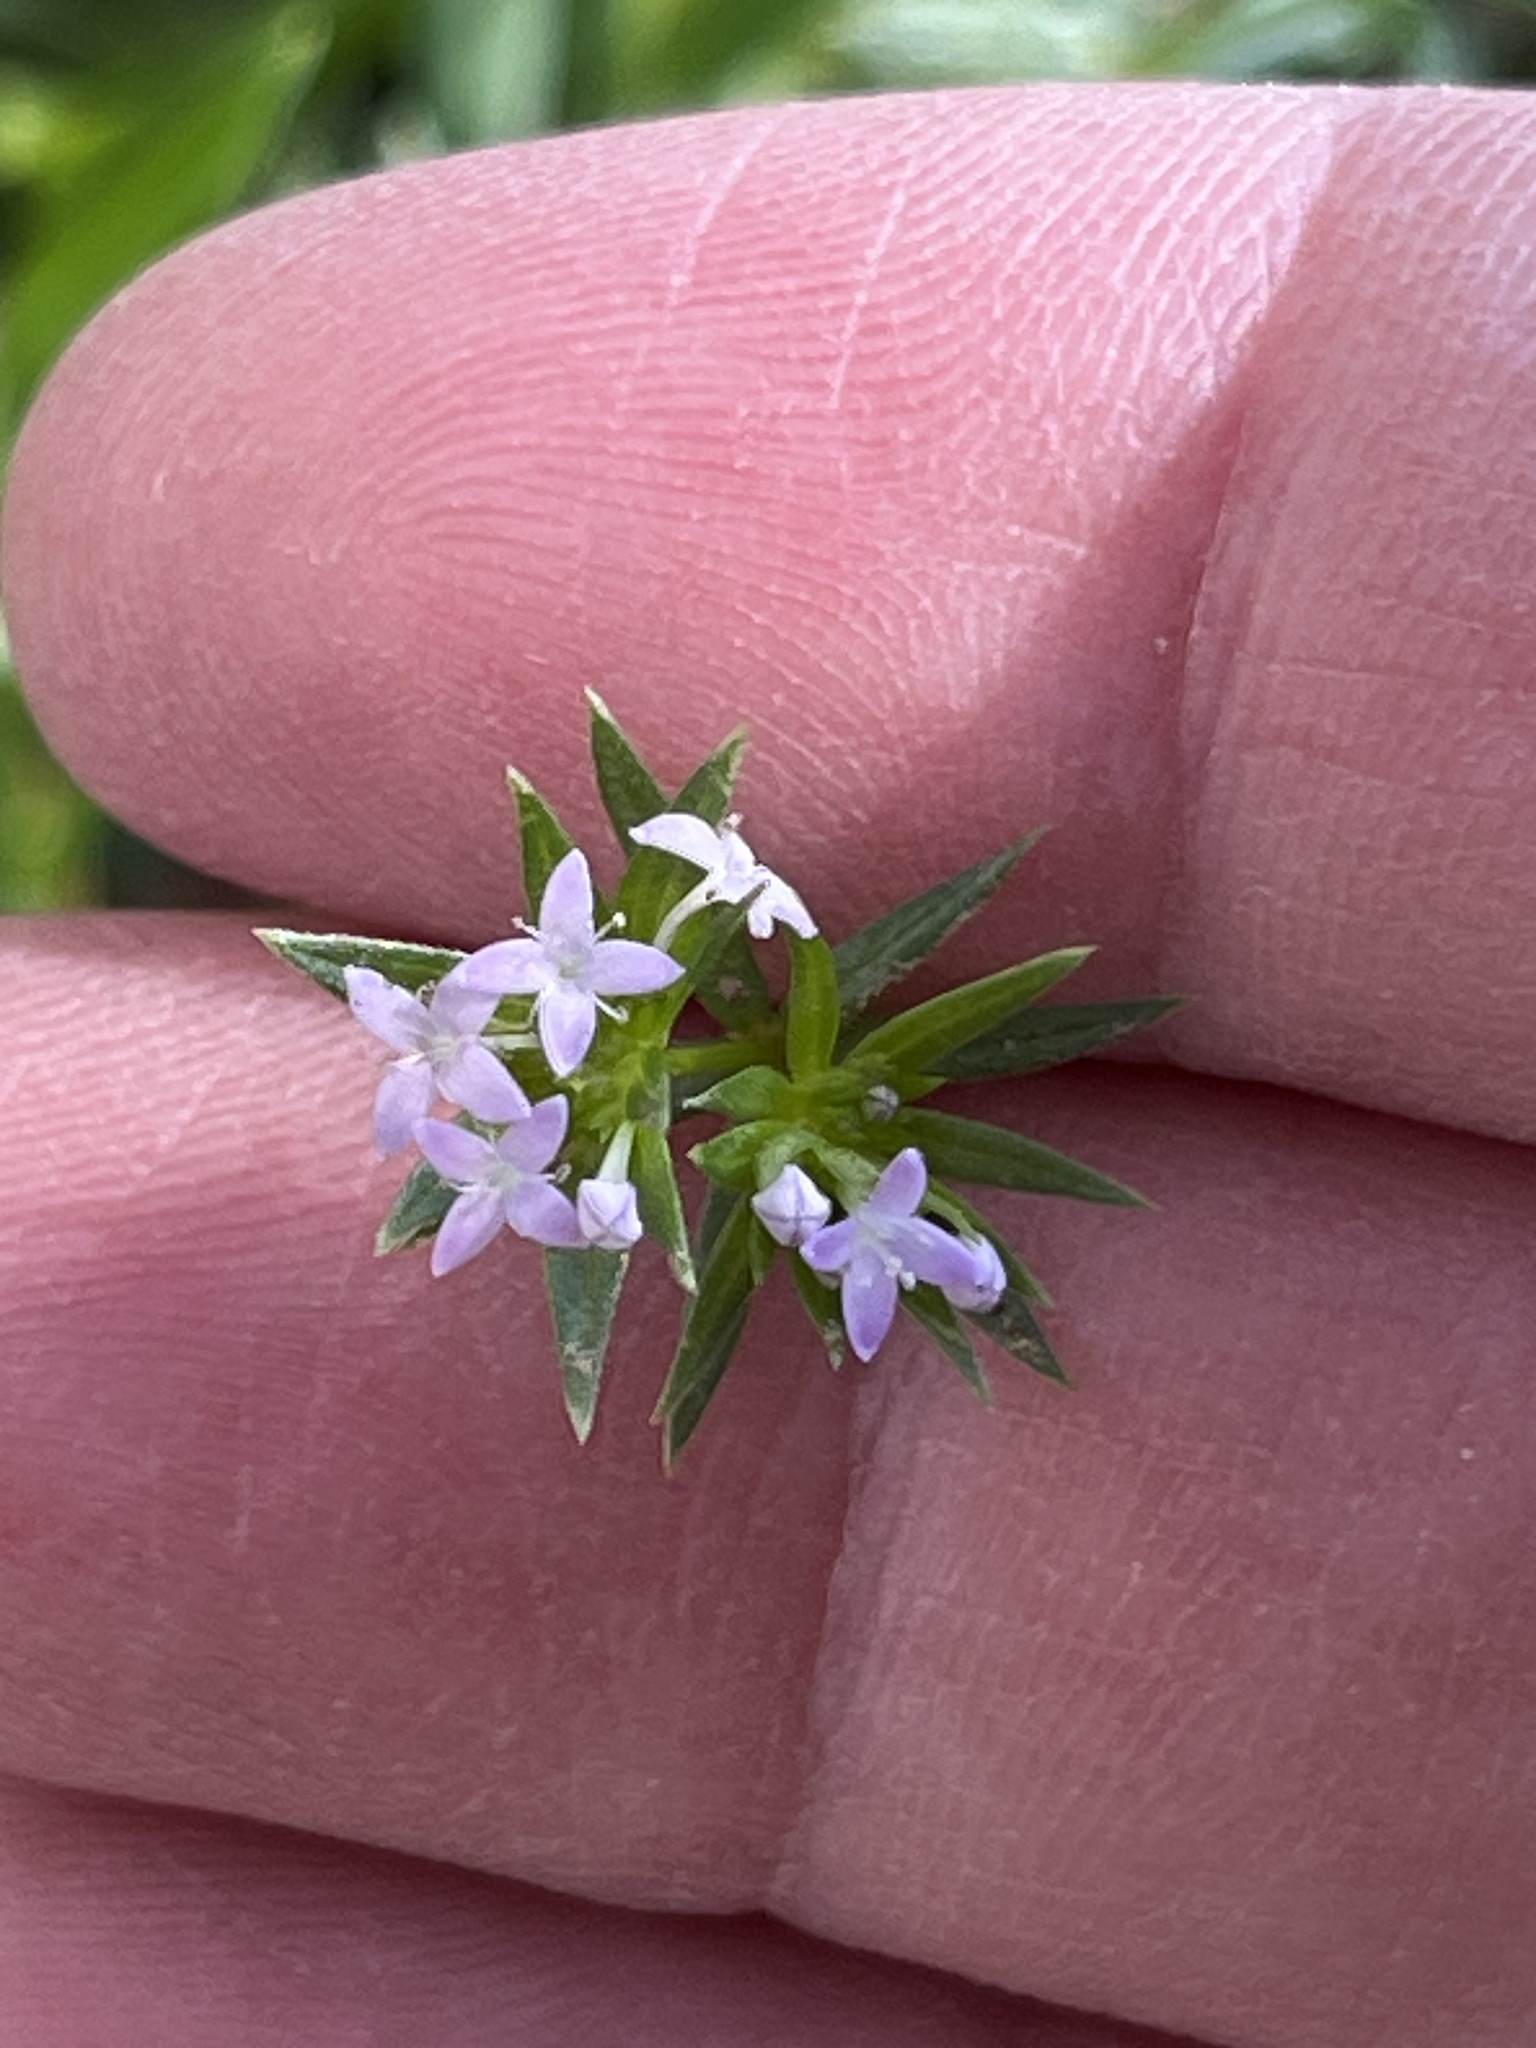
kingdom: Plantae
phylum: Tracheophyta
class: Magnoliopsida
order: Gentianales
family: Rubiaceae
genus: Sherardia
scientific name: Sherardia arvensis
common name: Field madder
